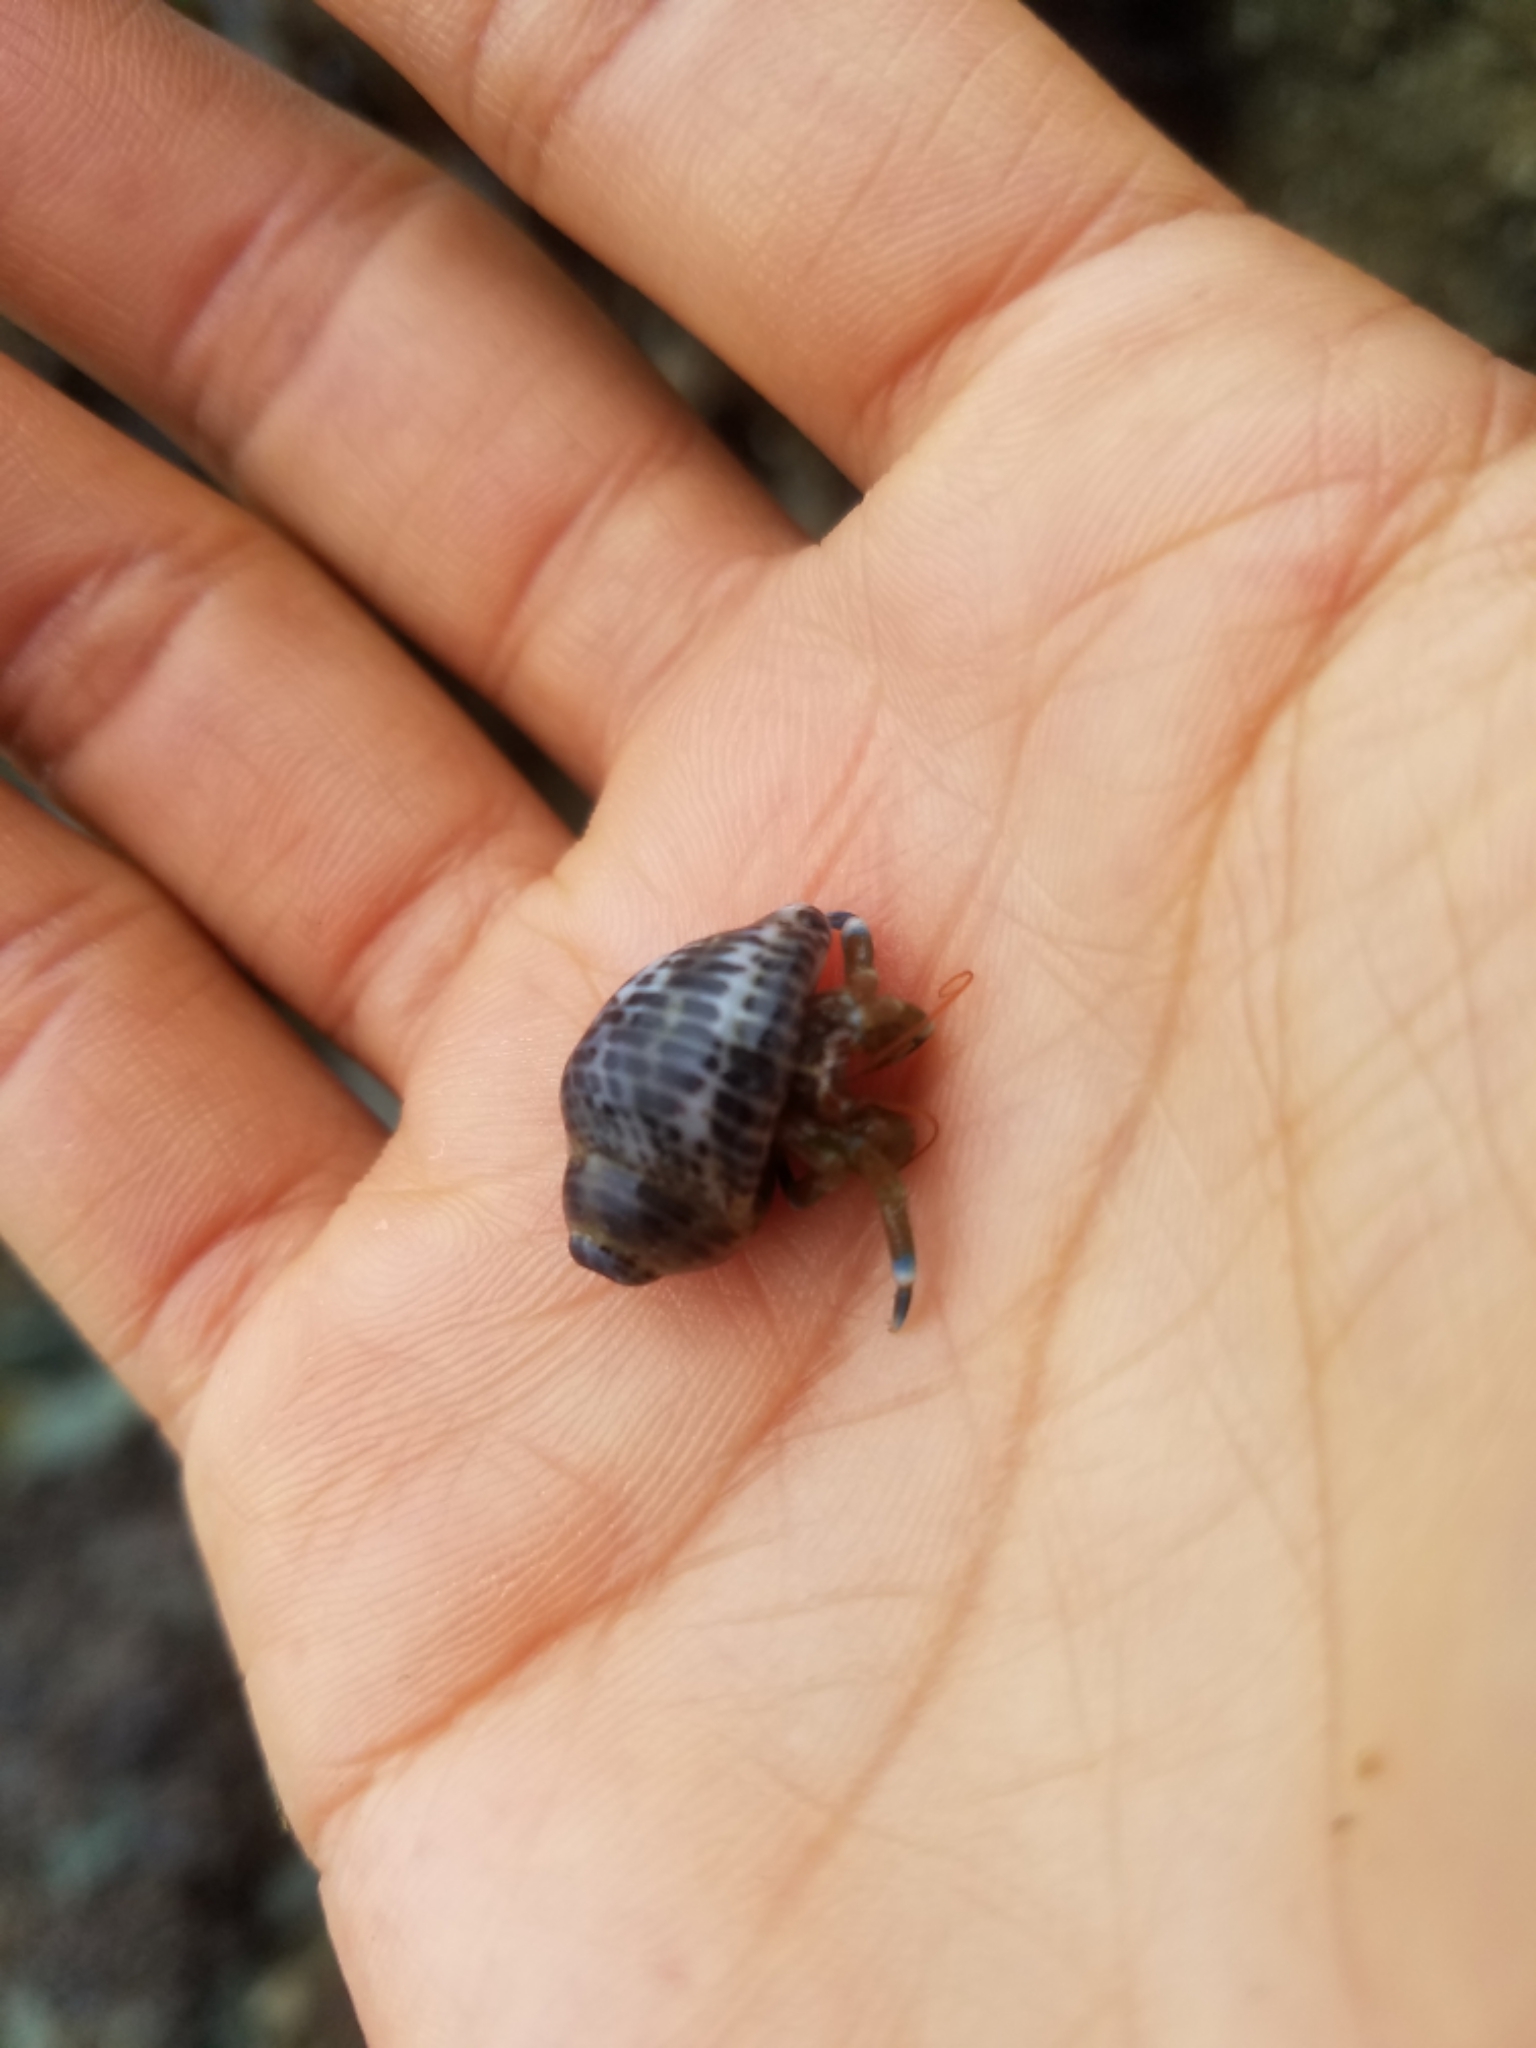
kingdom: Animalia
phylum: Arthropoda
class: Malacostraca
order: Decapoda
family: Paguridae
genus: Pagurus
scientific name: Pagurus samuelis
